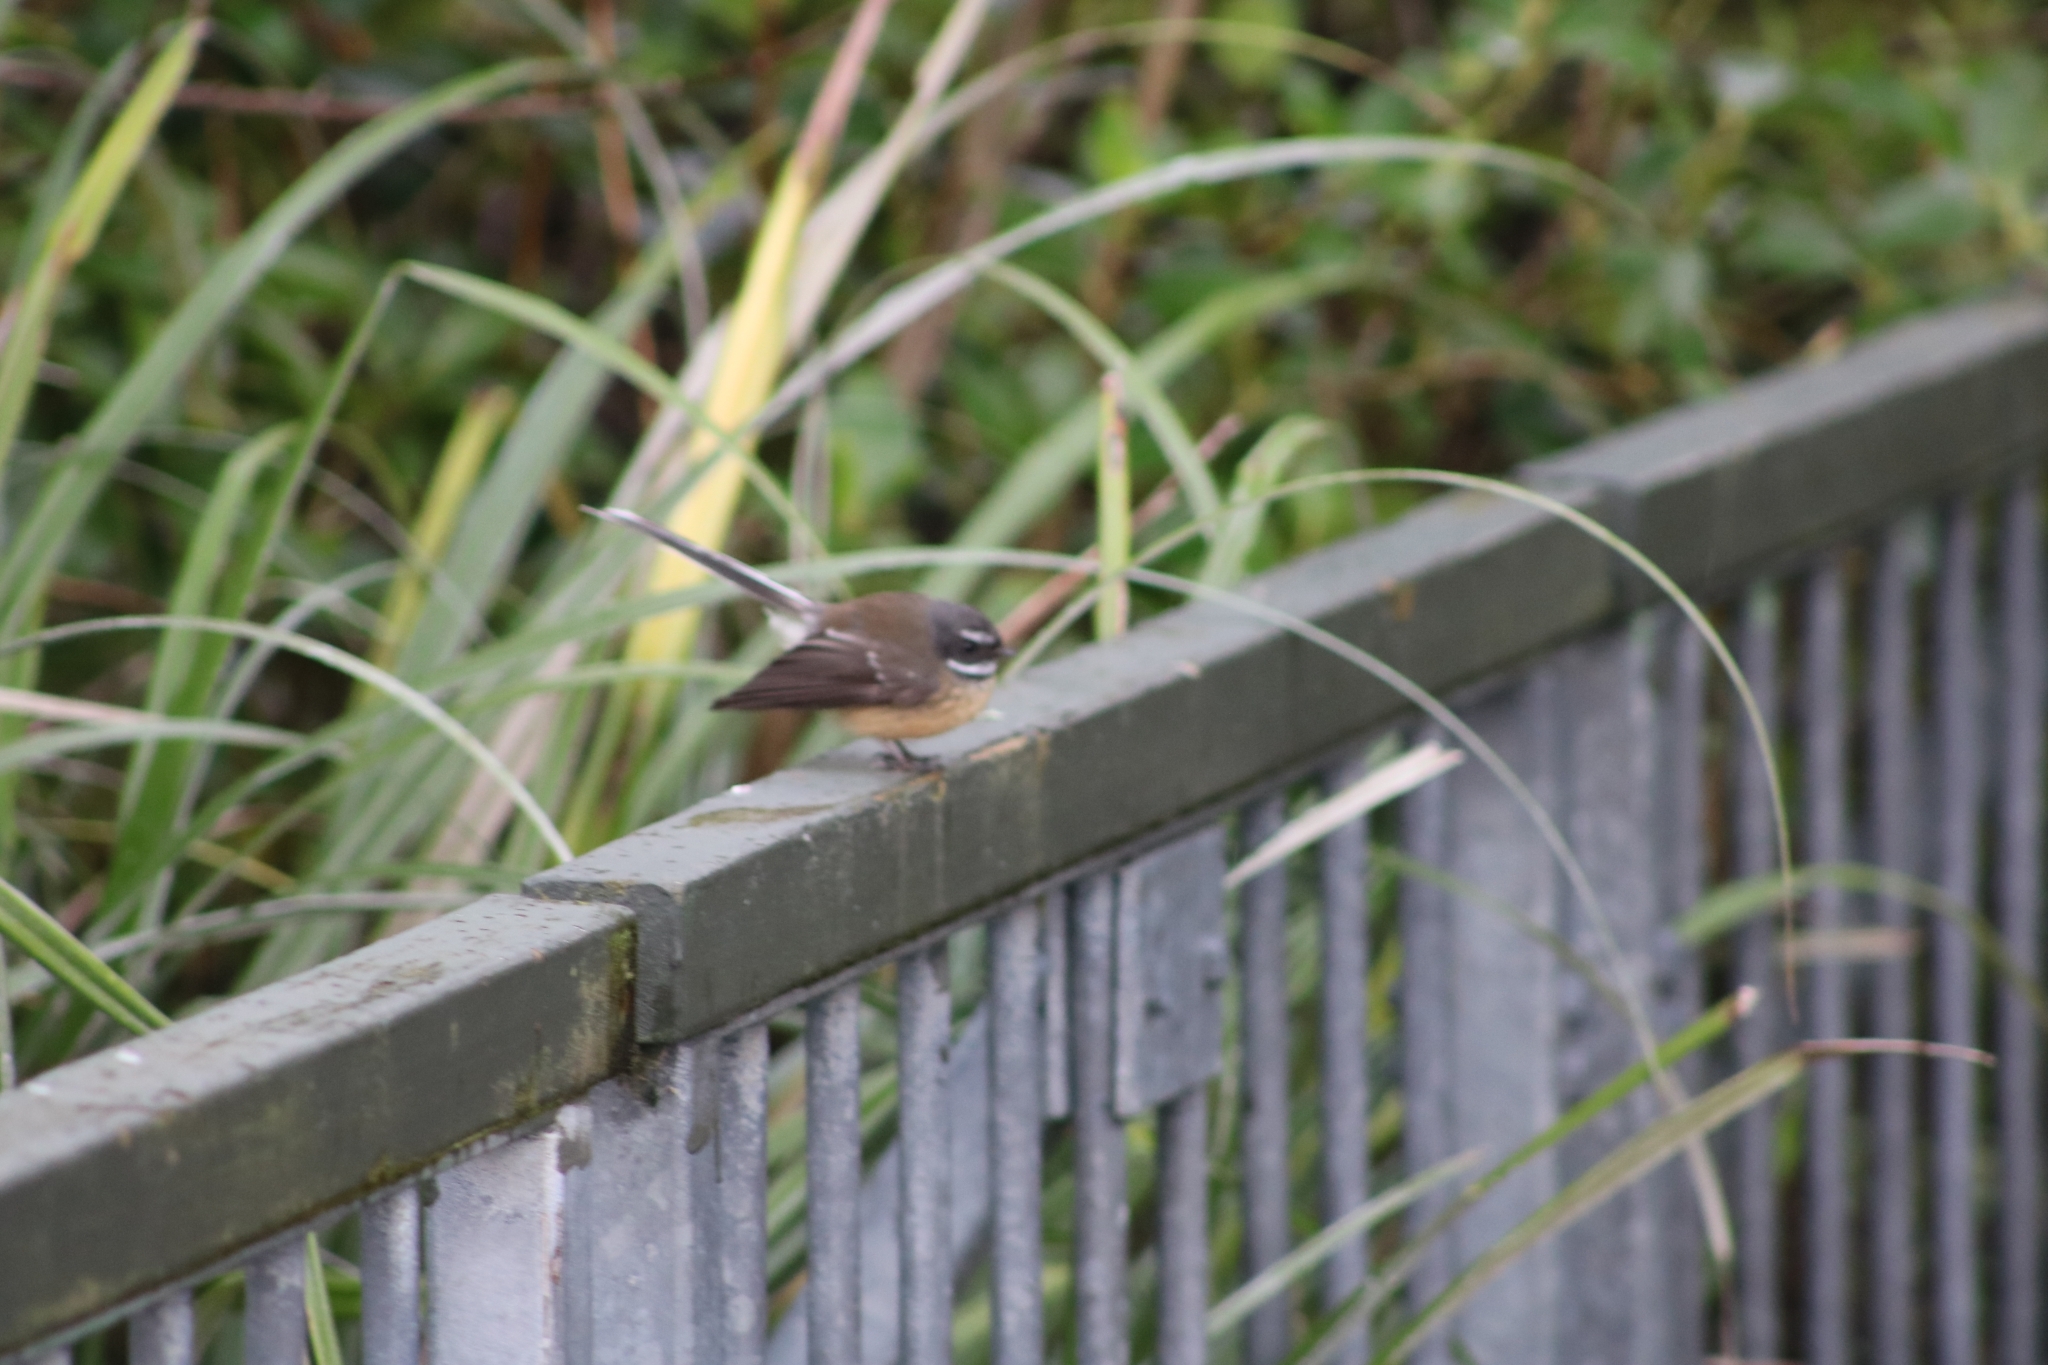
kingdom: Animalia
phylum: Chordata
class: Aves
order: Passeriformes
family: Rhipiduridae
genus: Rhipidura
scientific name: Rhipidura fuliginosa
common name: New zealand fantail
